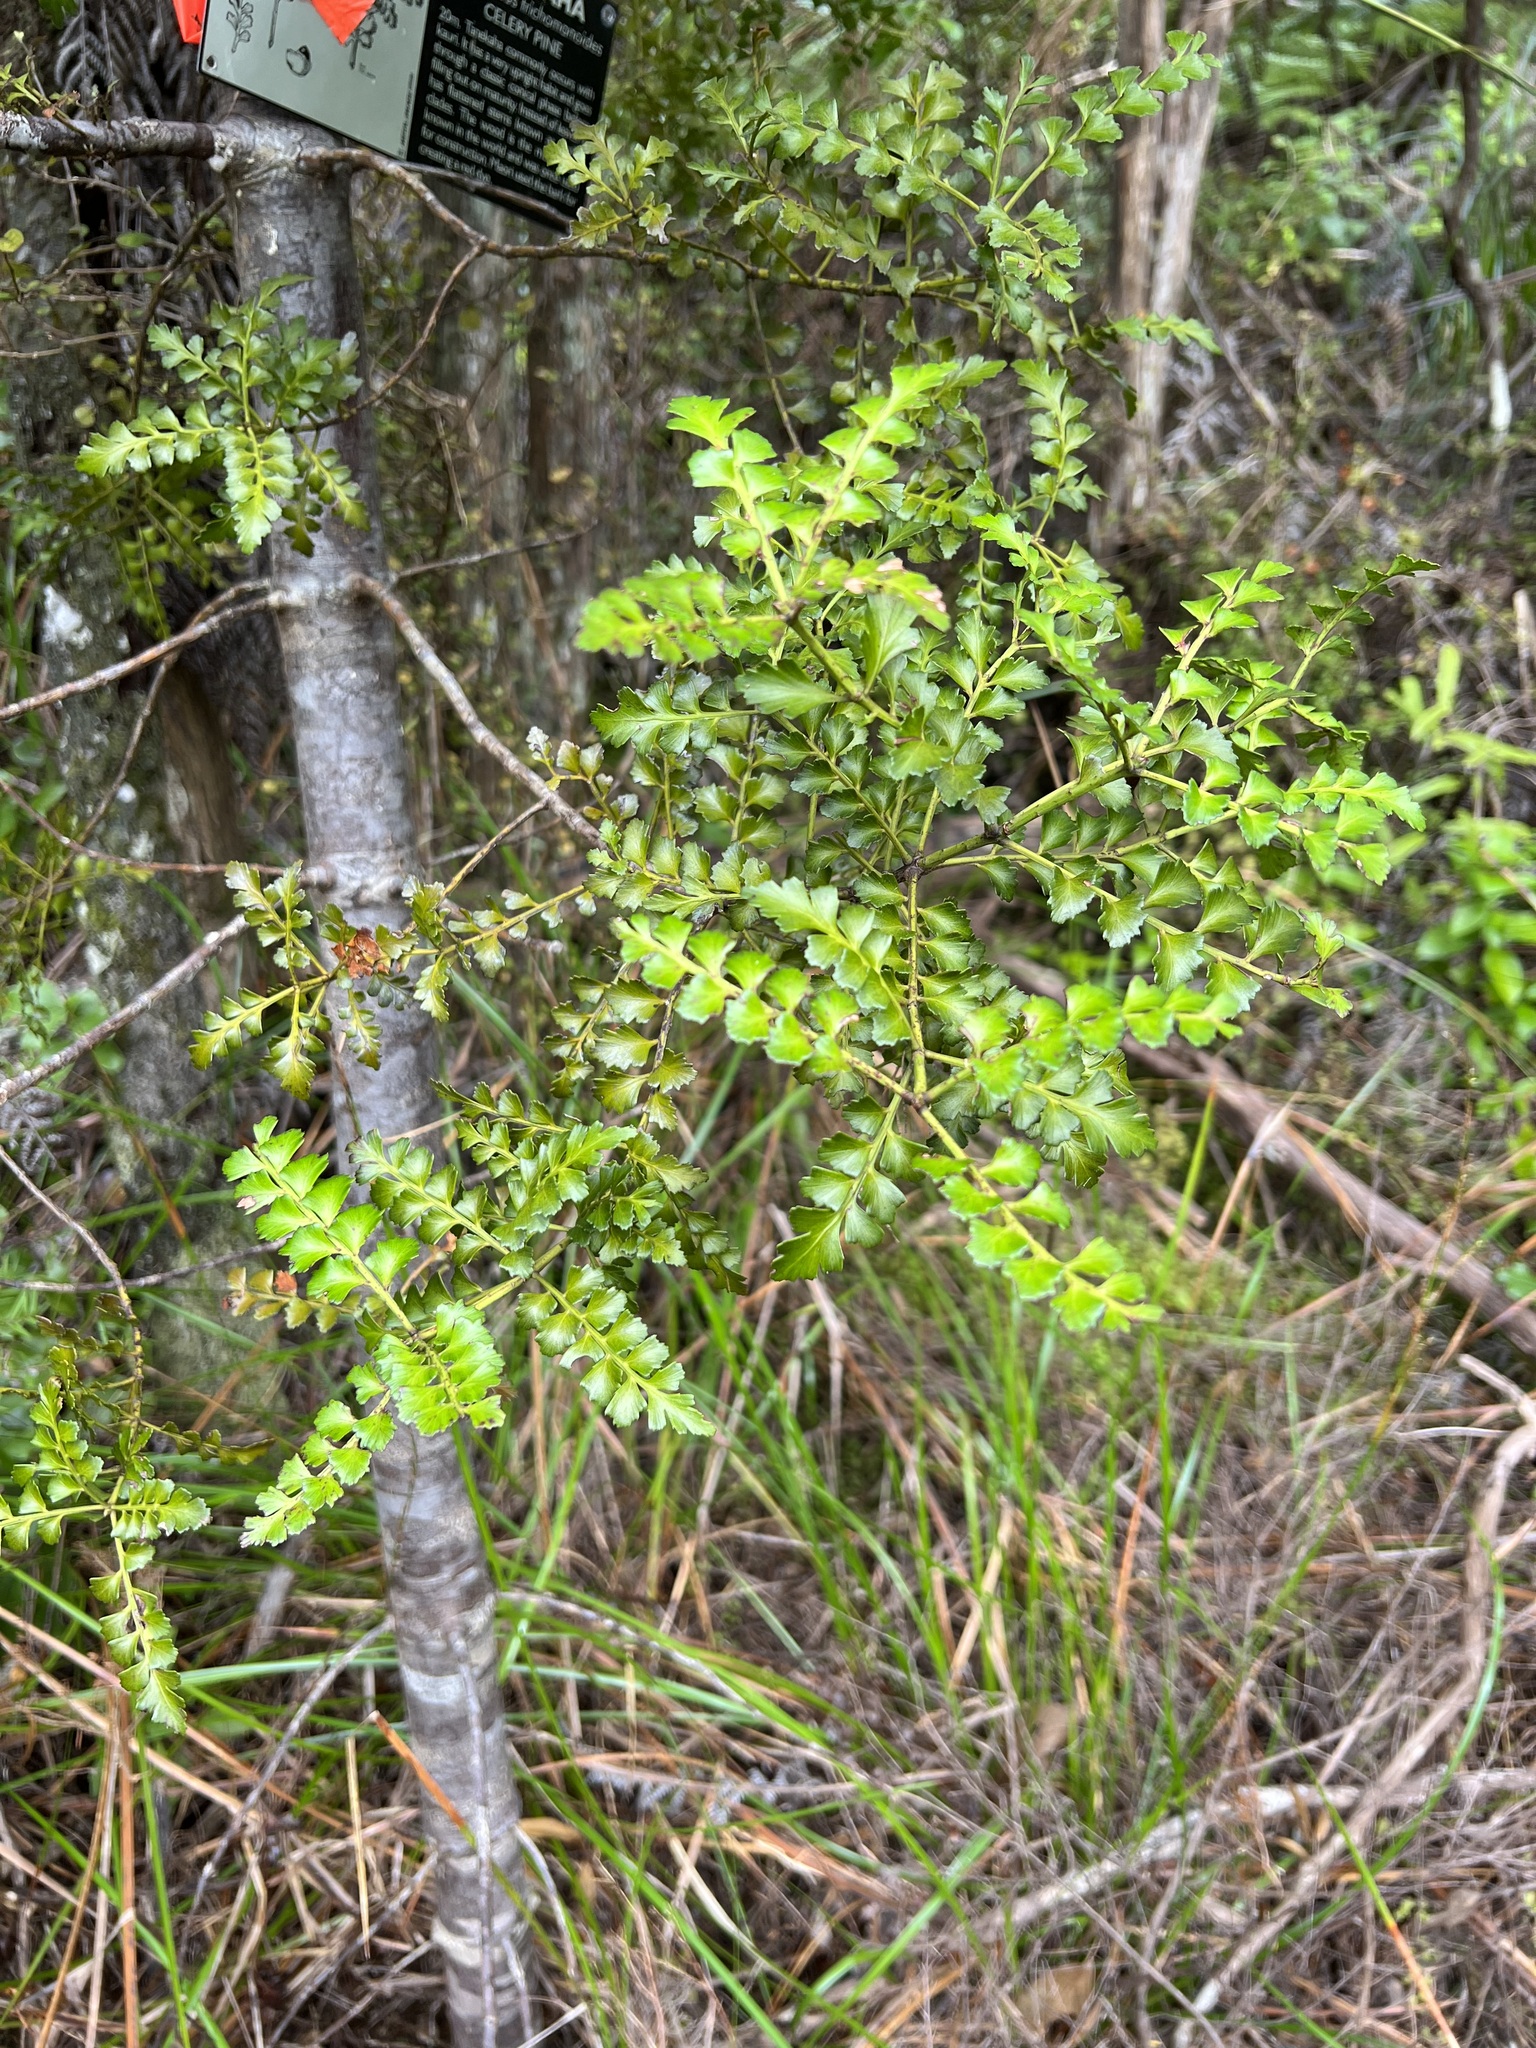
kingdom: Plantae
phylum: Tracheophyta
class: Pinopsida
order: Pinales
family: Phyllocladaceae
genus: Phyllocladus
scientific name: Phyllocladus trichomanoides
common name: Celery pine
